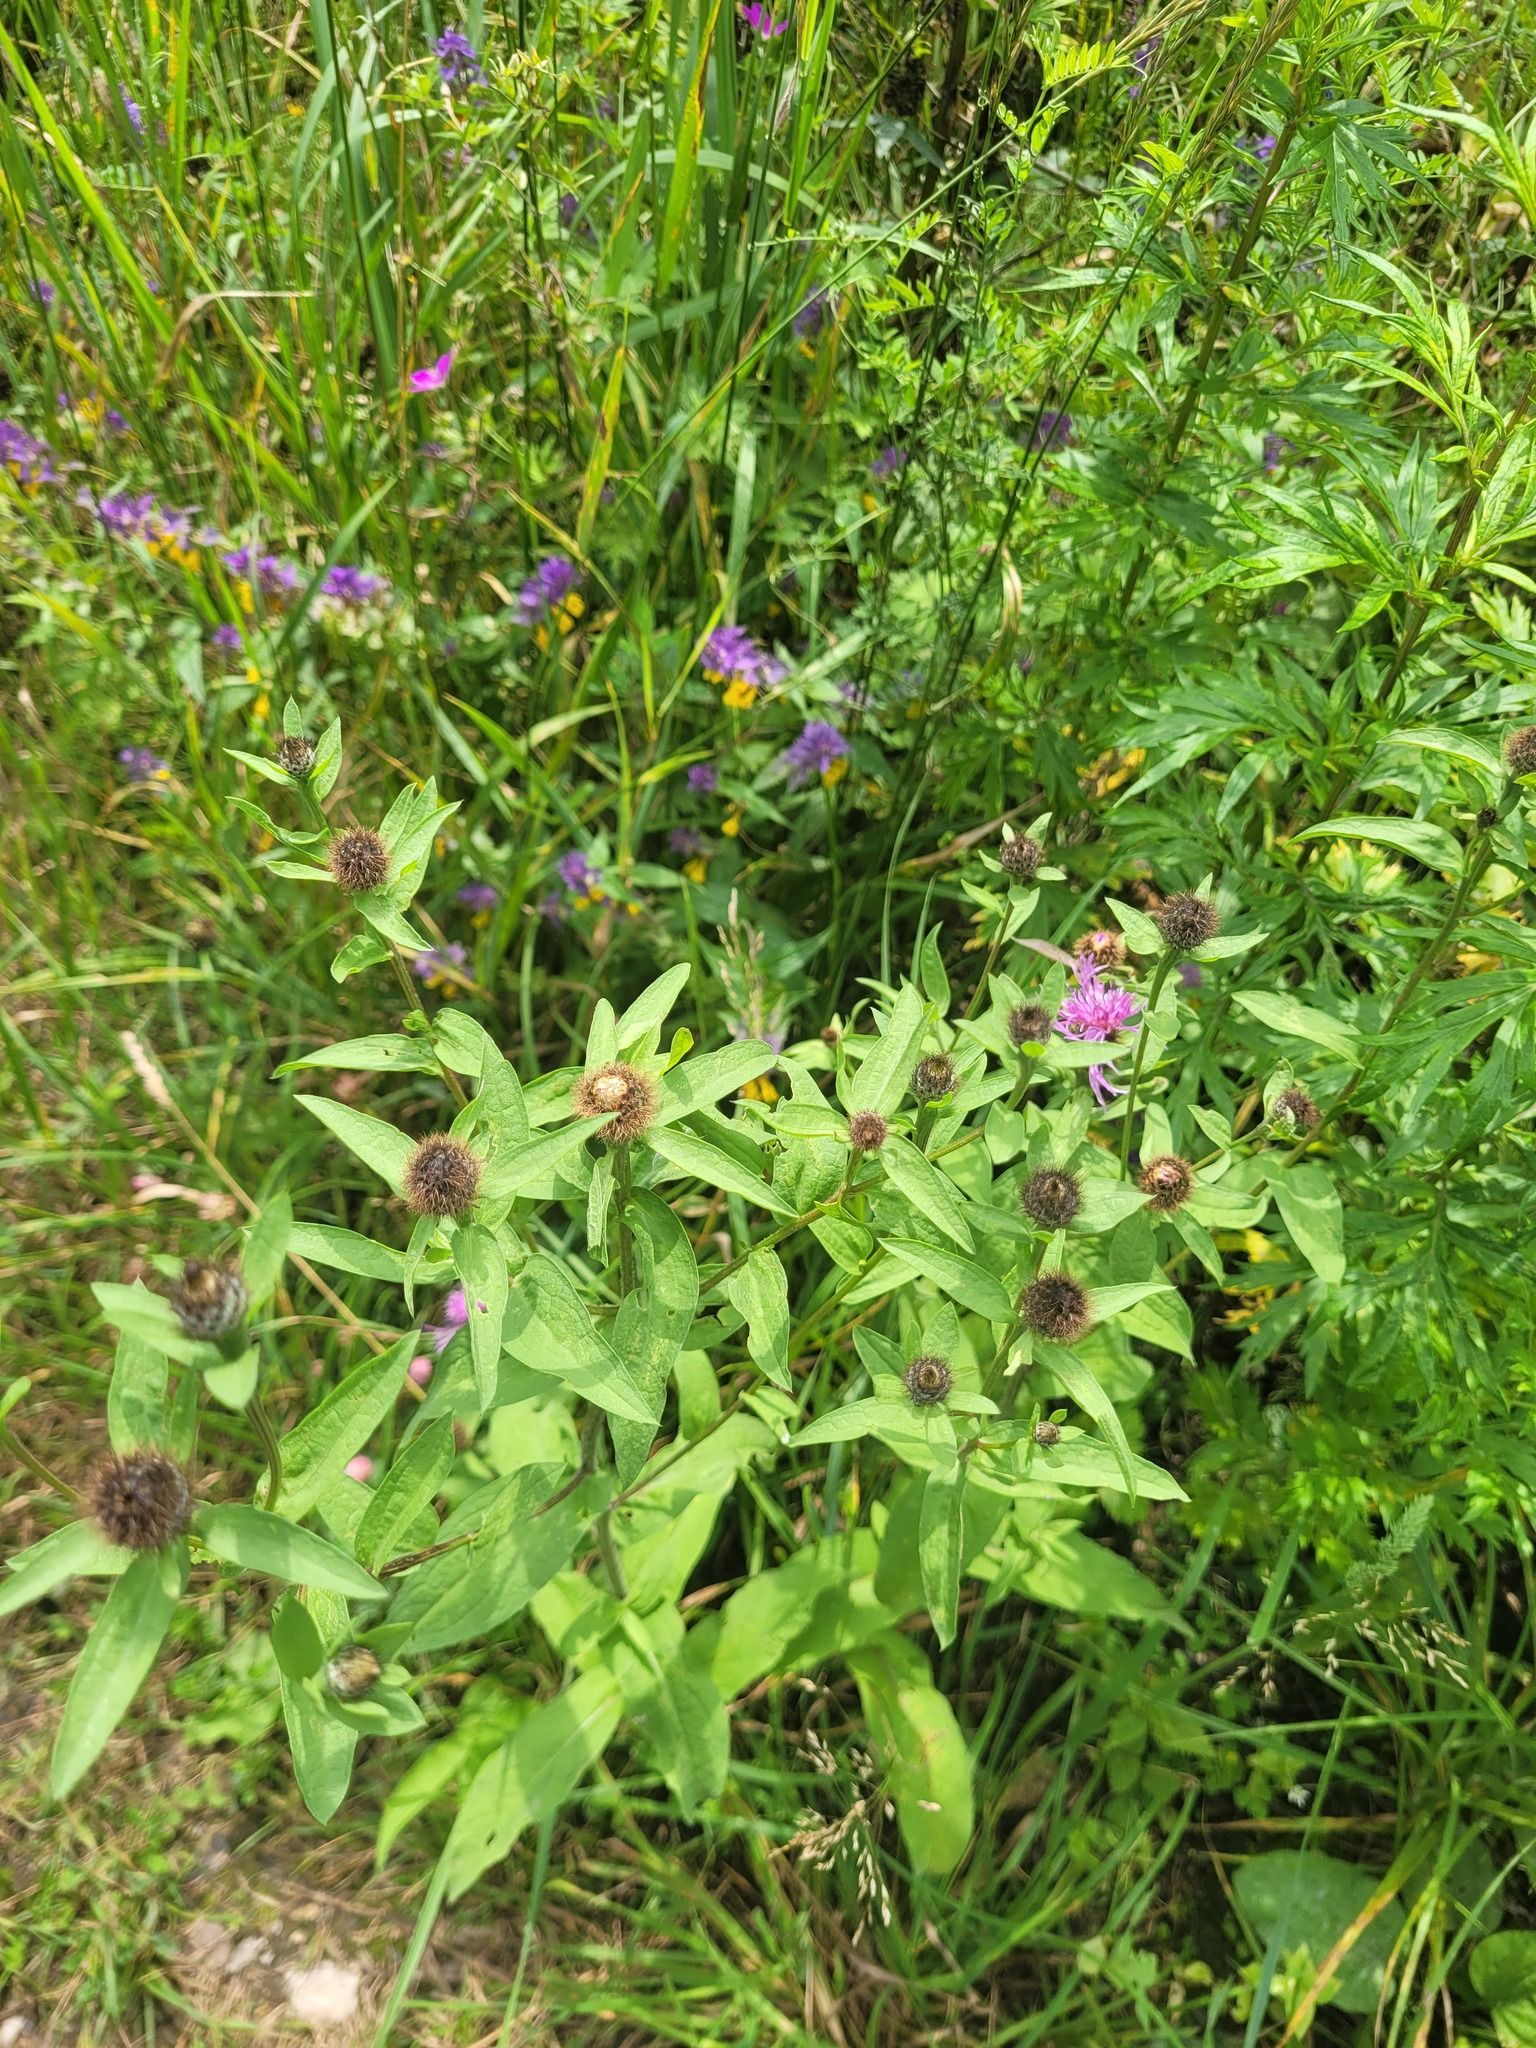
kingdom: Plantae
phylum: Tracheophyta
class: Magnoliopsida
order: Asterales
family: Asteraceae
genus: Centaurea
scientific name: Centaurea pseudophrygia
